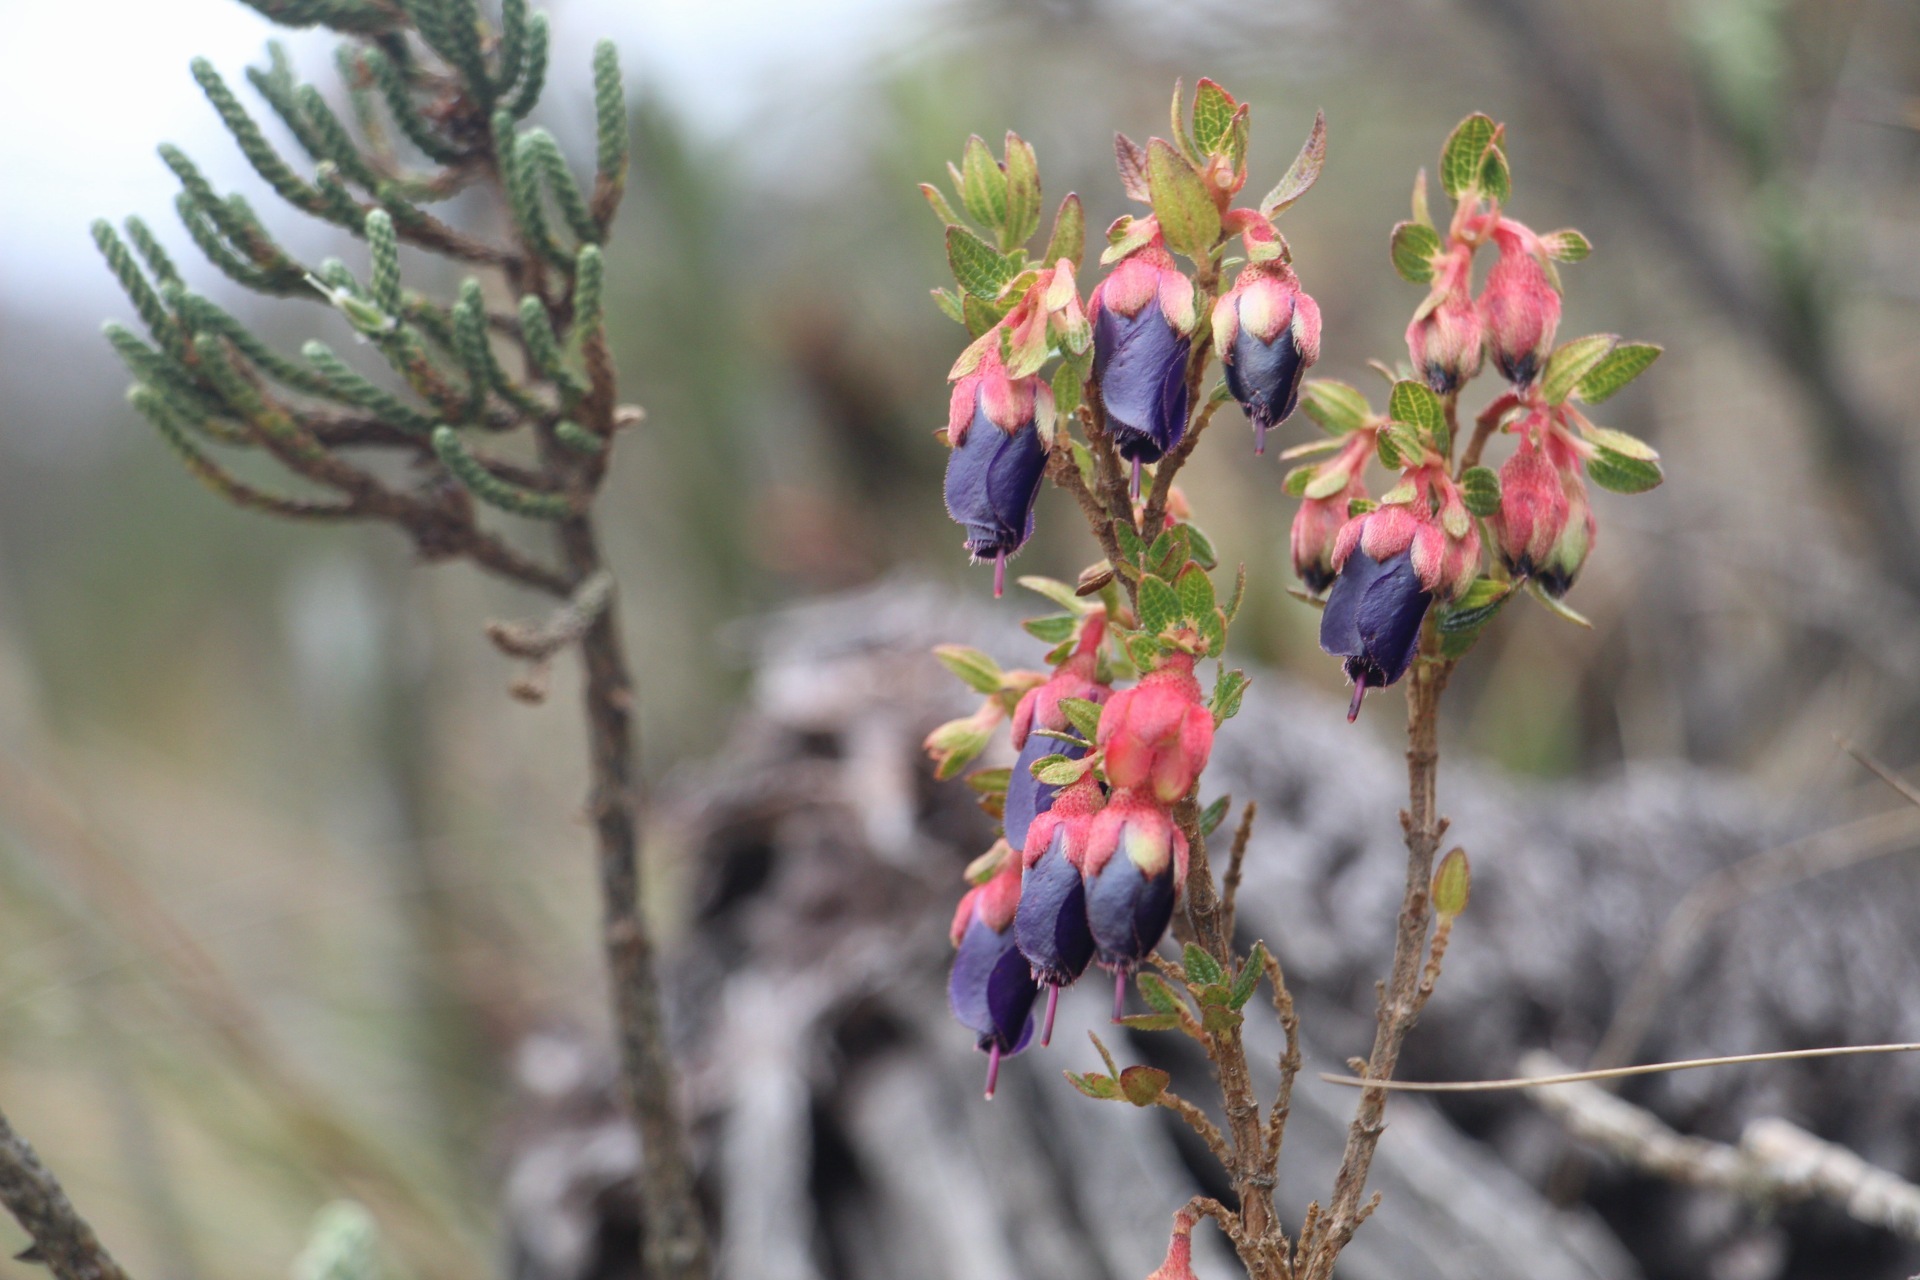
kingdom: Plantae
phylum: Tracheophyta
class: Magnoliopsida
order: Myrtales
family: Melastomataceae
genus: Brachyotum
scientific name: Brachyotum strigosum
